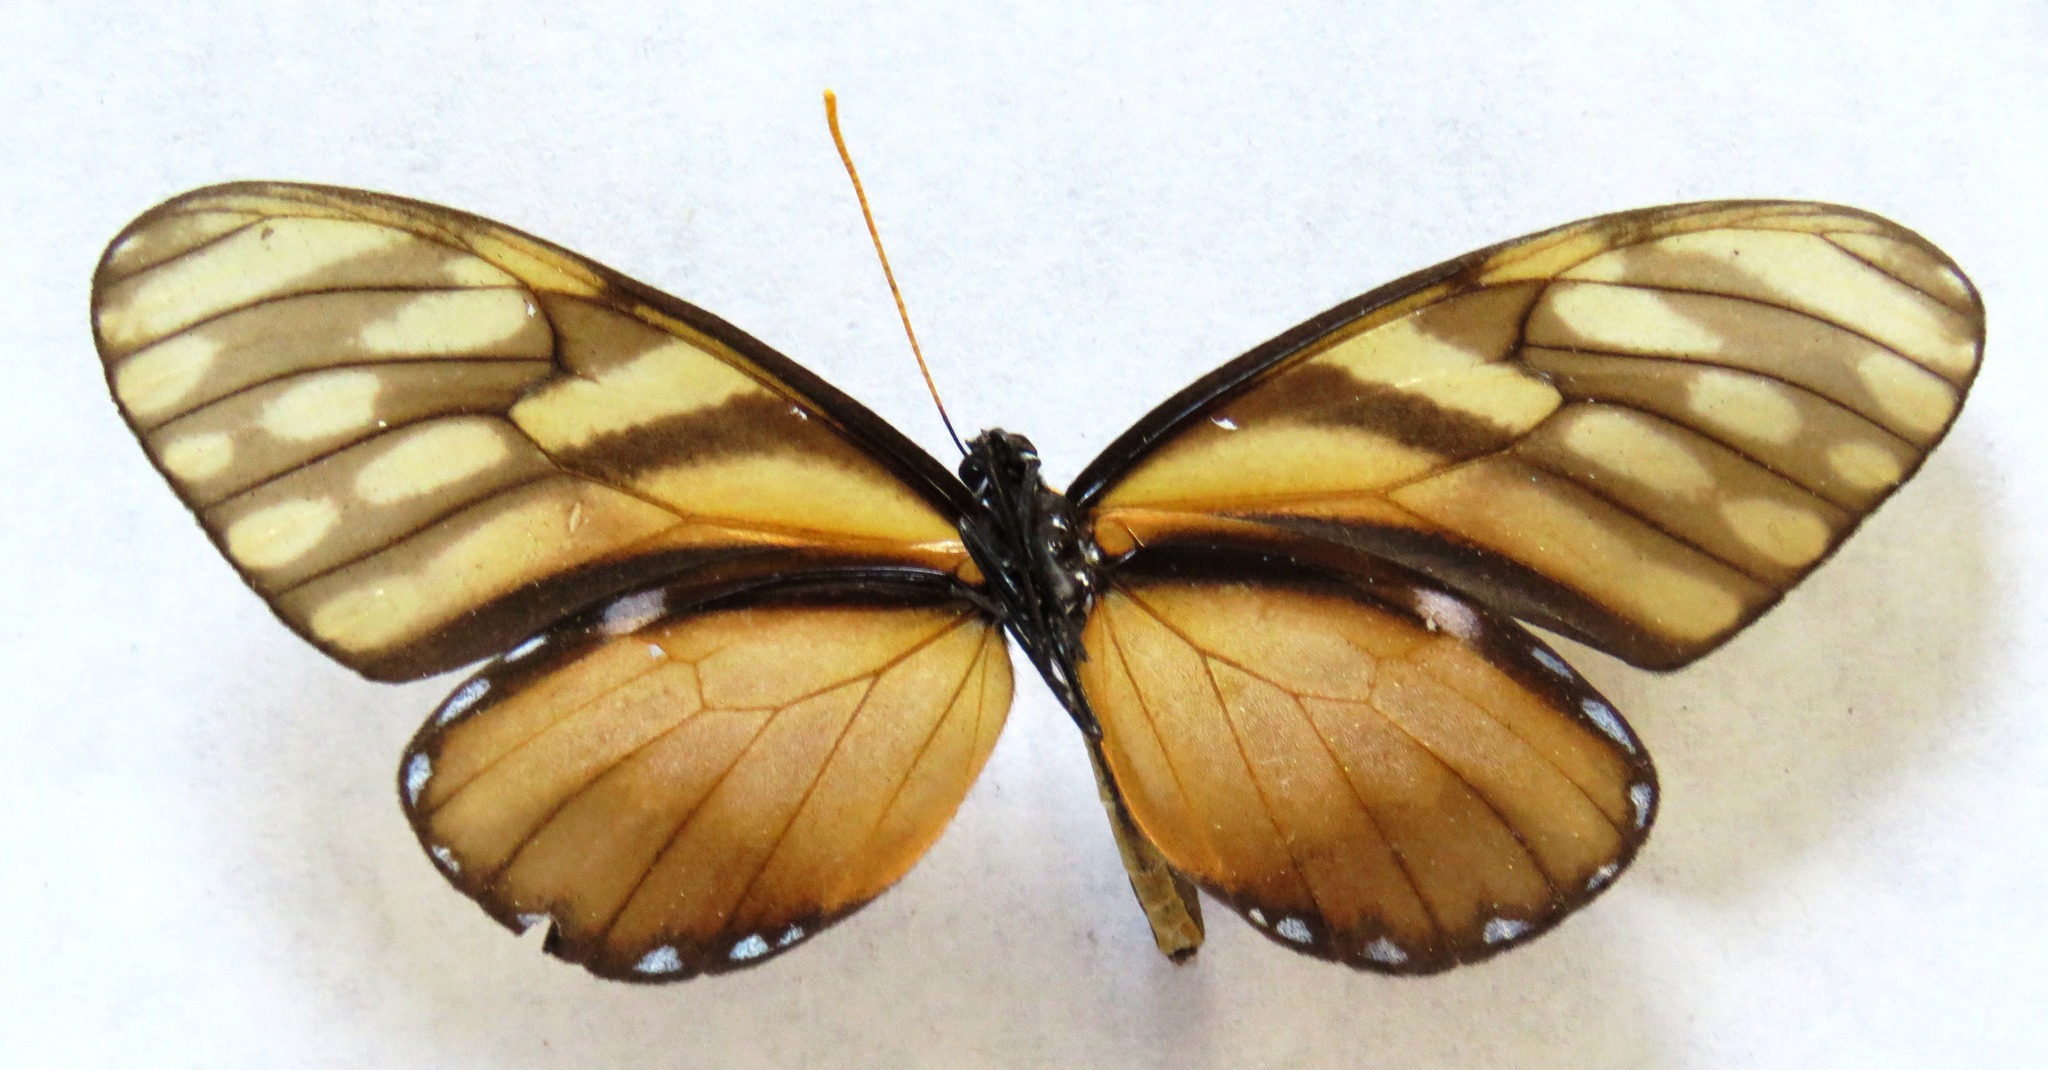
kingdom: Animalia
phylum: Arthropoda
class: Insecta
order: Lepidoptera
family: Nymphalidae
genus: Dircenna
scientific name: Dircenna klugii
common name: Klug’s clearwing
